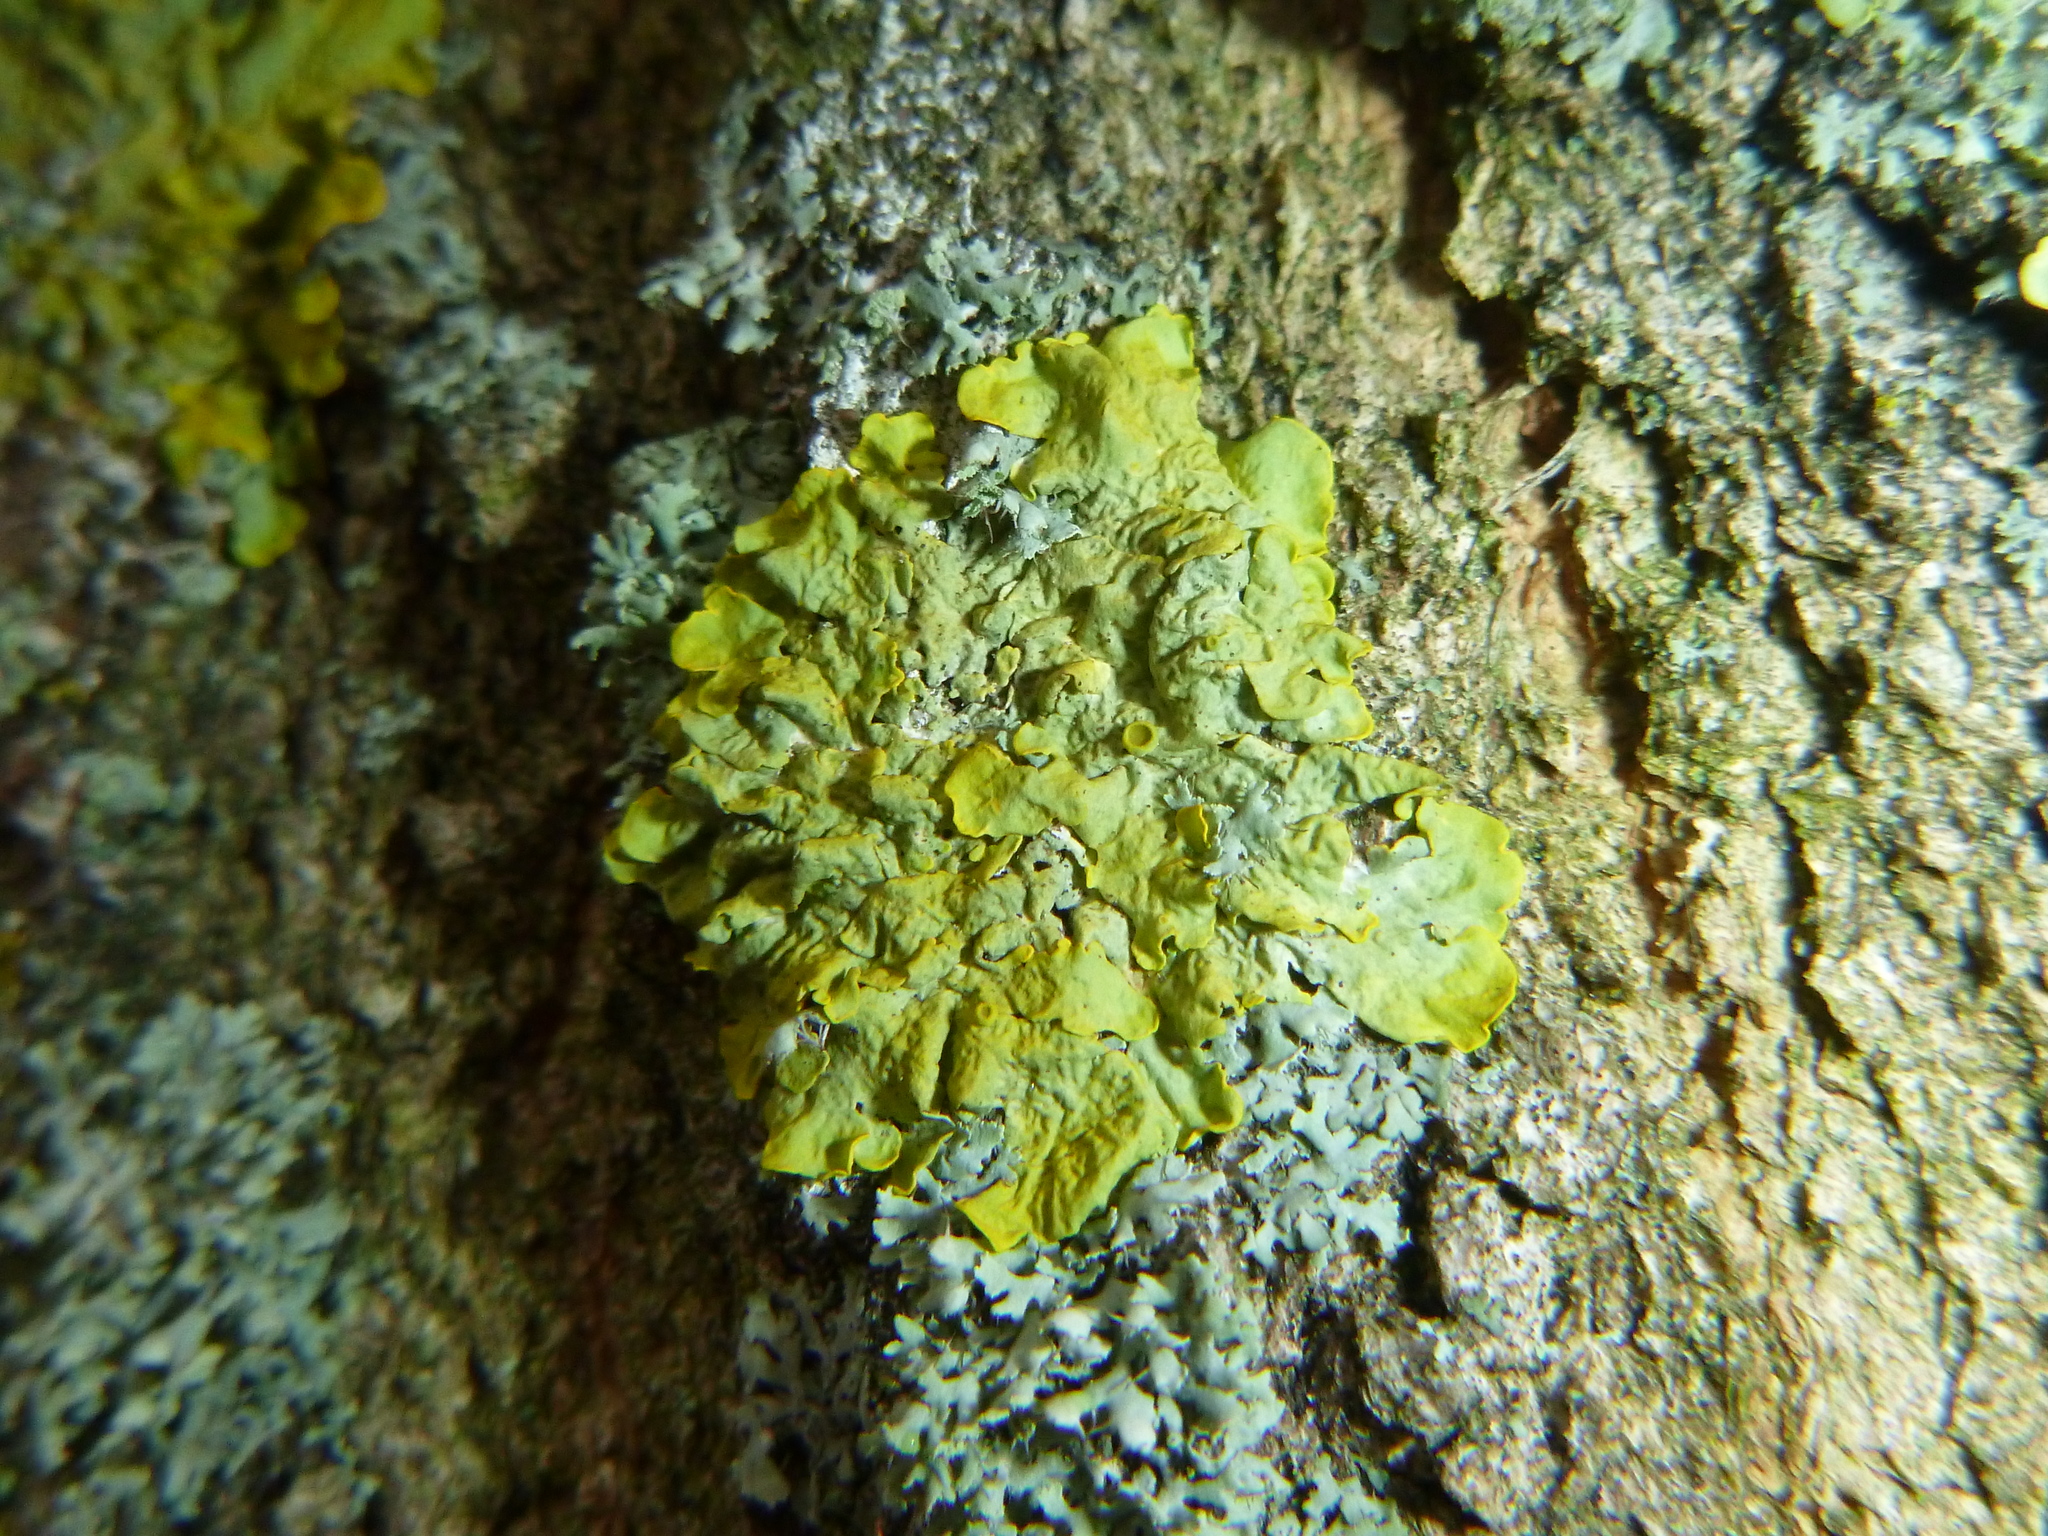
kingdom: Fungi
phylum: Ascomycota
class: Lecanoromycetes
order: Teloschistales
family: Teloschistaceae
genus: Xanthoria
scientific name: Xanthoria parietina
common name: Common orange lichen
